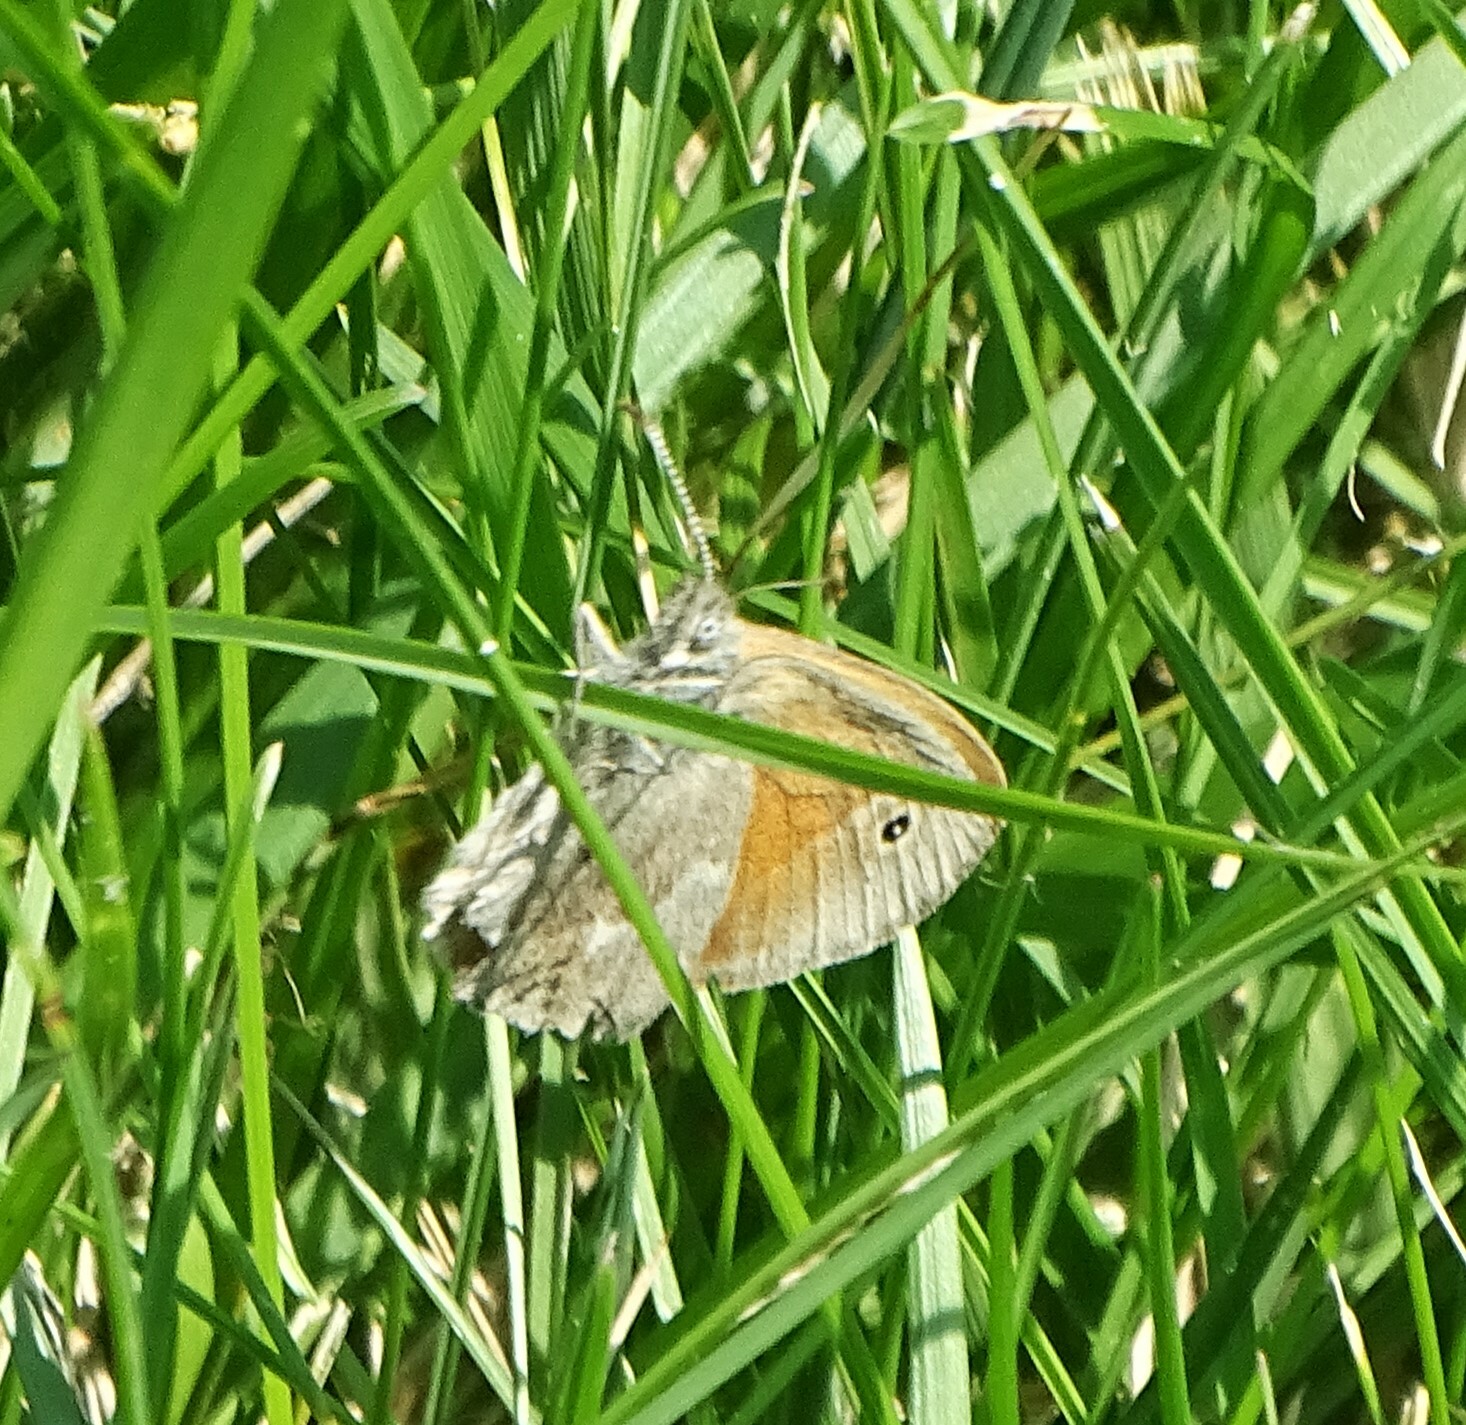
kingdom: Animalia
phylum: Arthropoda
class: Insecta
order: Lepidoptera
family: Nymphalidae
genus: Coenonympha
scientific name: Coenonympha california
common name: Common ringlet
